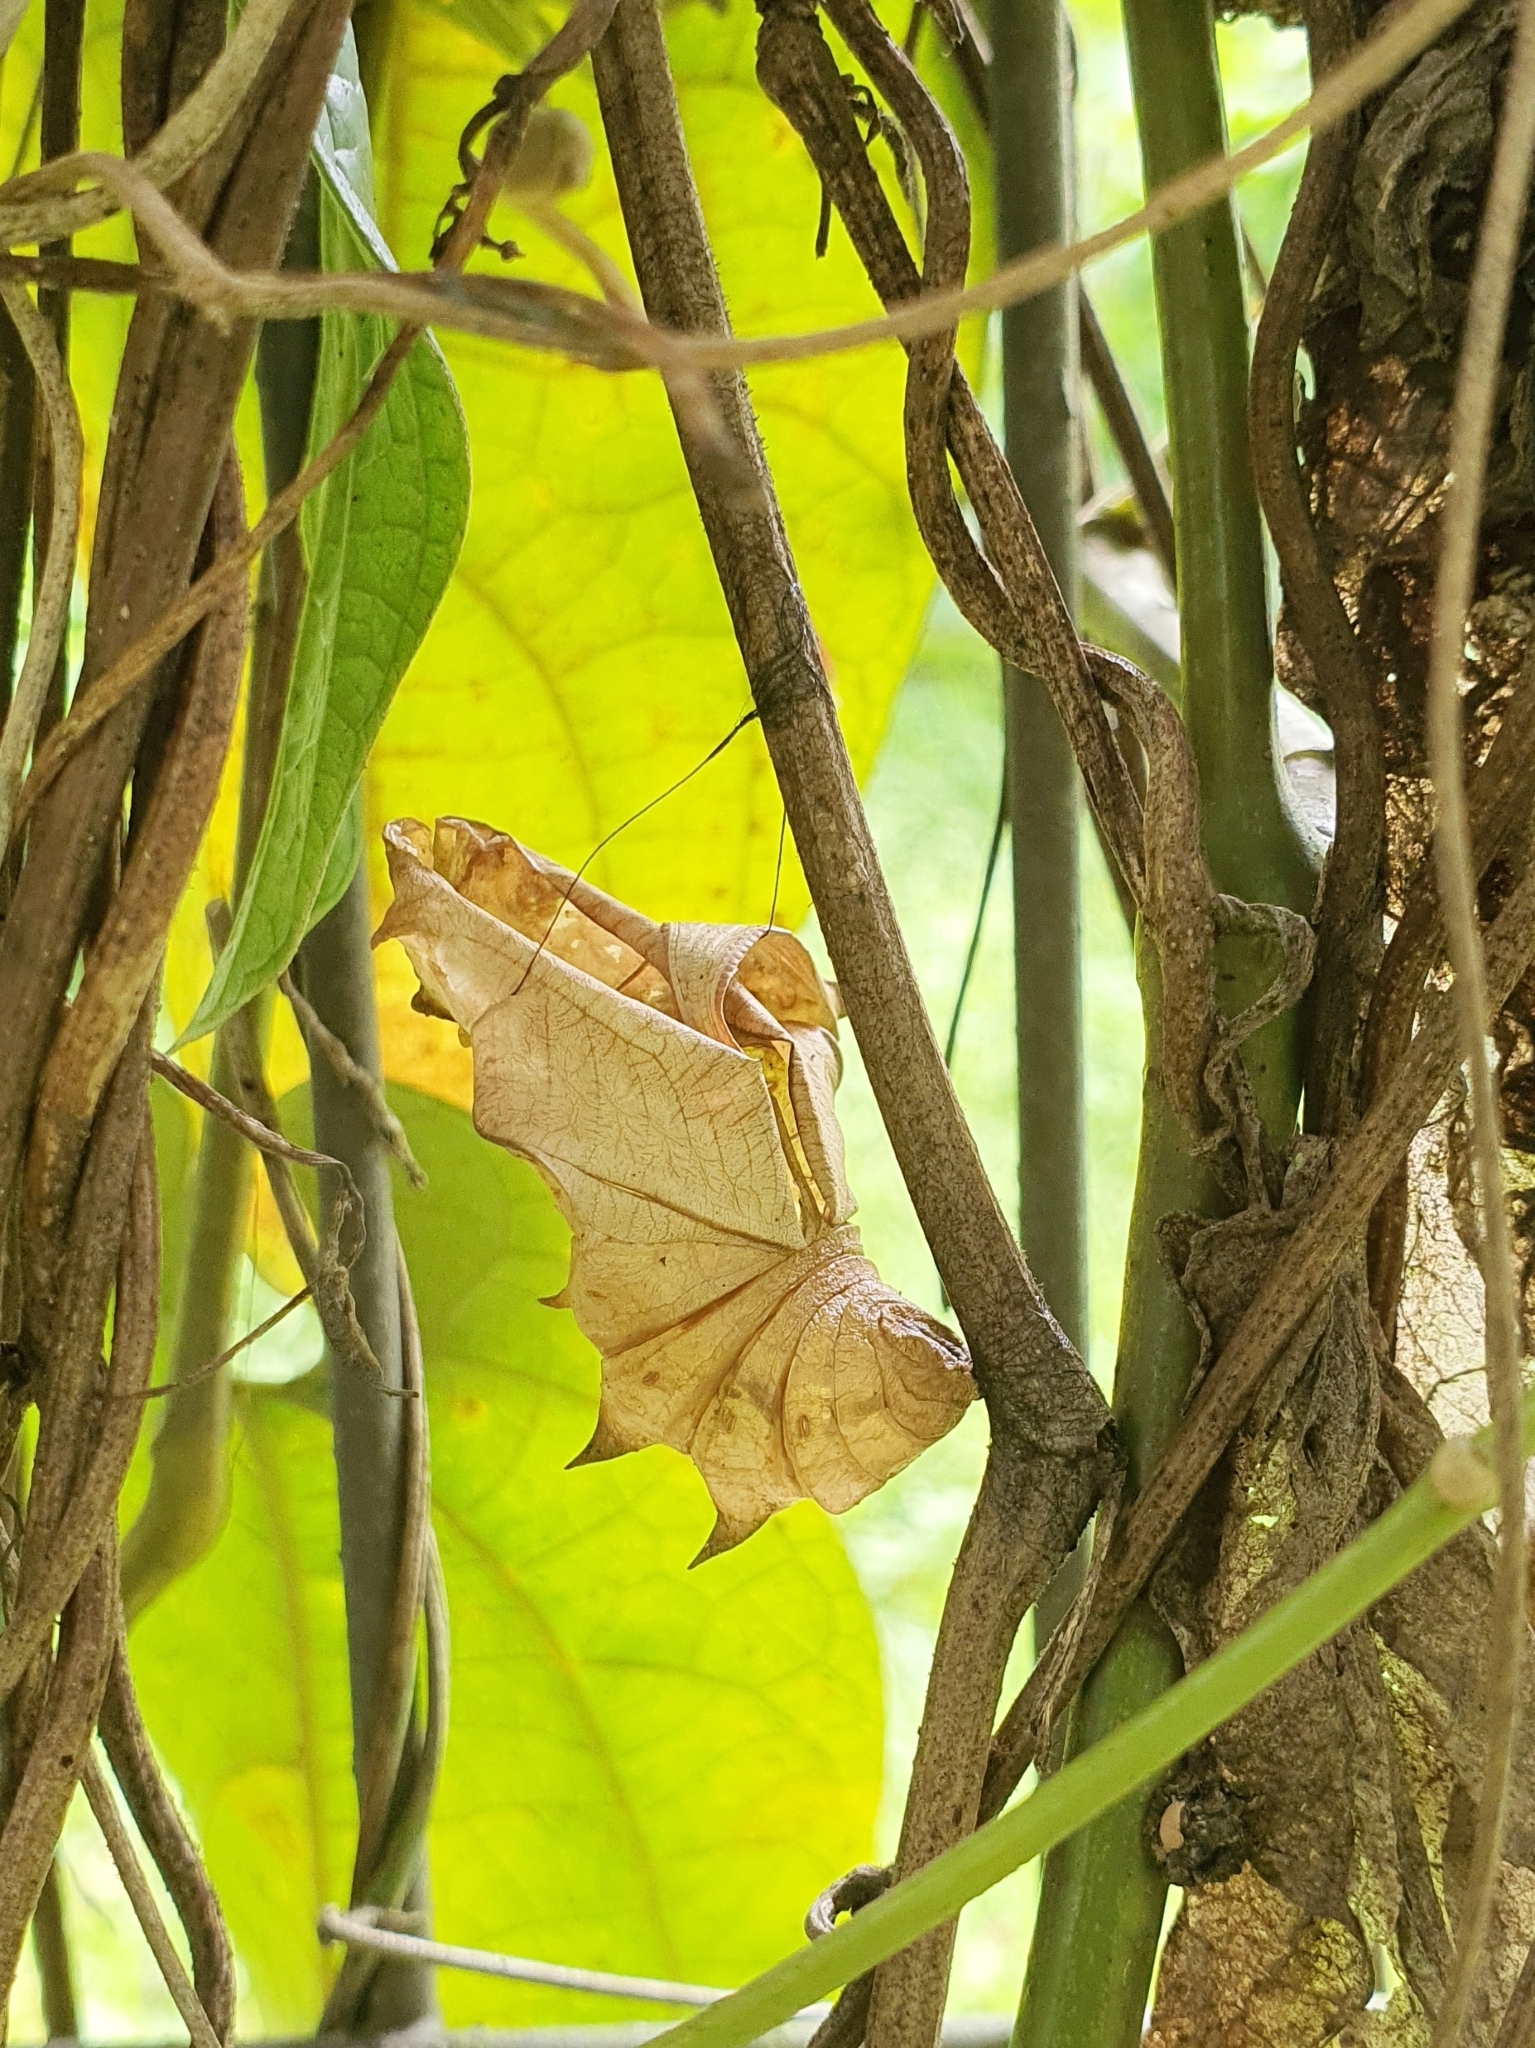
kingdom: Animalia
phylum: Arthropoda
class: Insecta
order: Lepidoptera
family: Papilionidae
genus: Troides
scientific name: Troides helena
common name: Common birdwing
